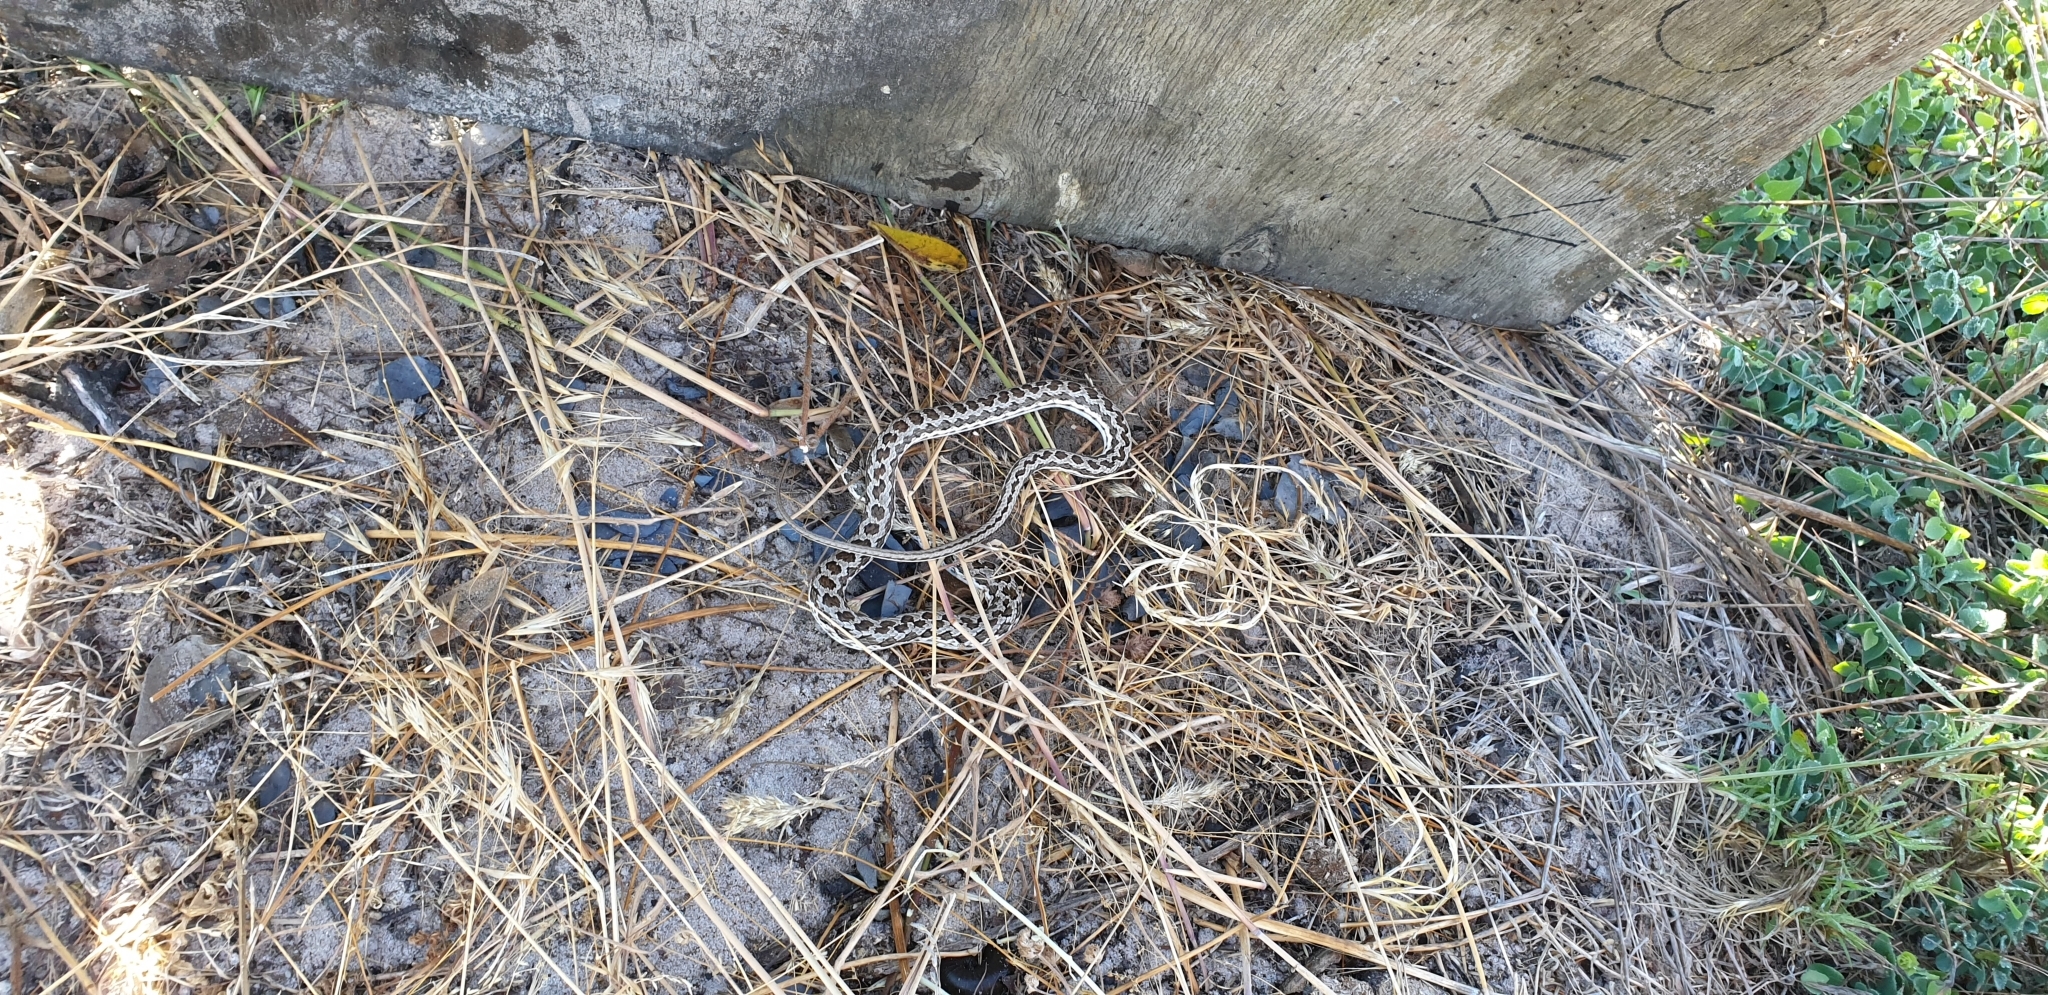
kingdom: Animalia
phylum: Chordata
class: Squamata
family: Psammophiidae
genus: Psammophylax
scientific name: Psammophylax rhombeatus
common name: Rhombic skaapsteker
